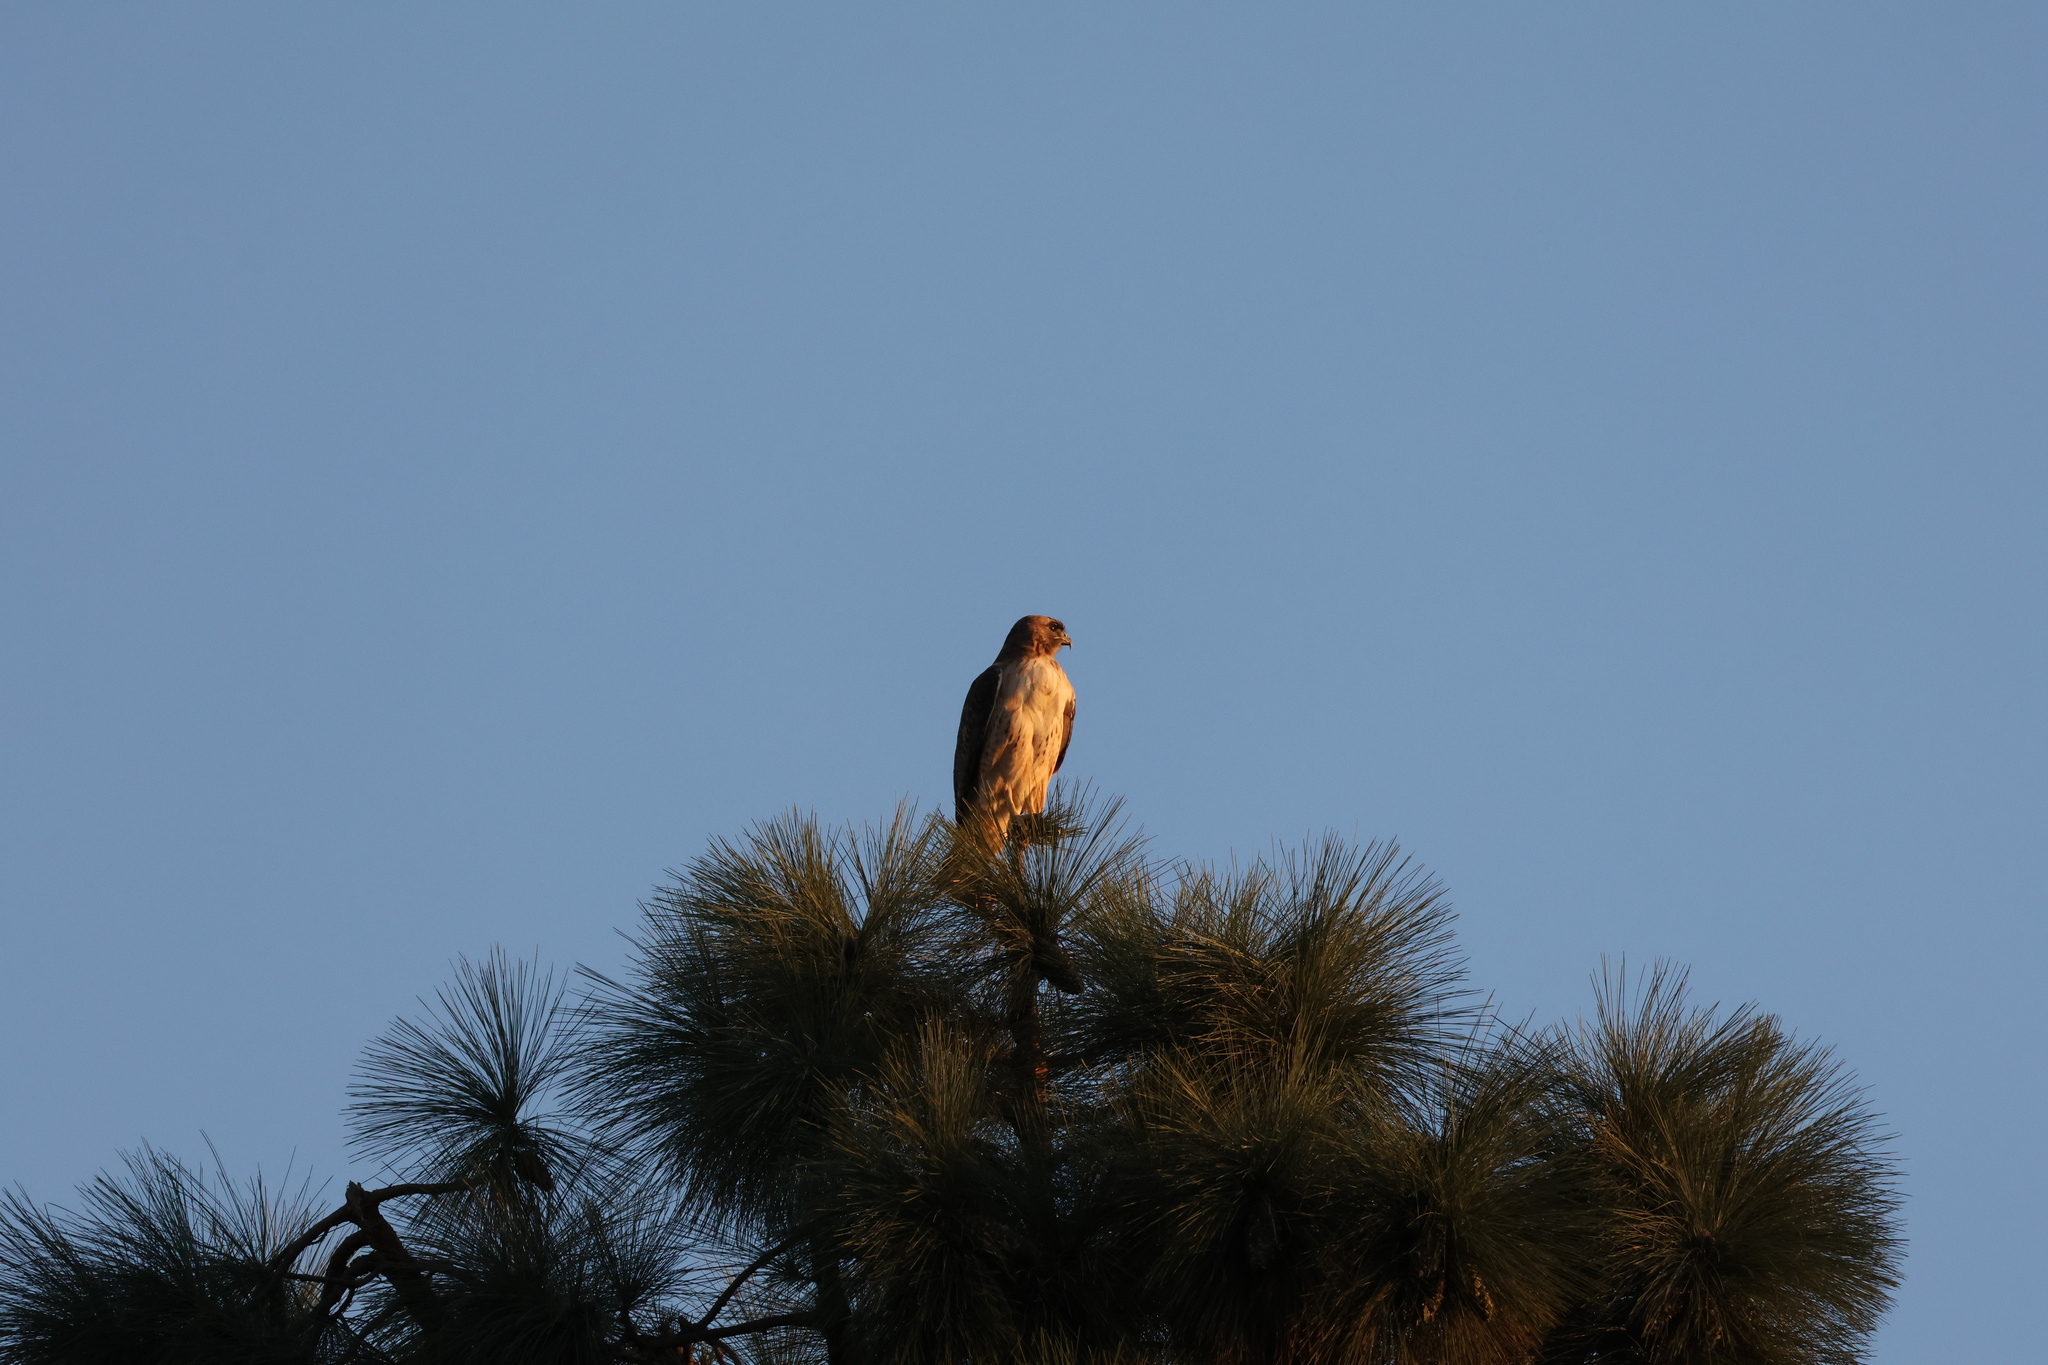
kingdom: Animalia
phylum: Chordata
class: Aves
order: Accipitriformes
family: Accipitridae
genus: Buteo
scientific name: Buteo jamaicensis
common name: Red-tailed hawk
